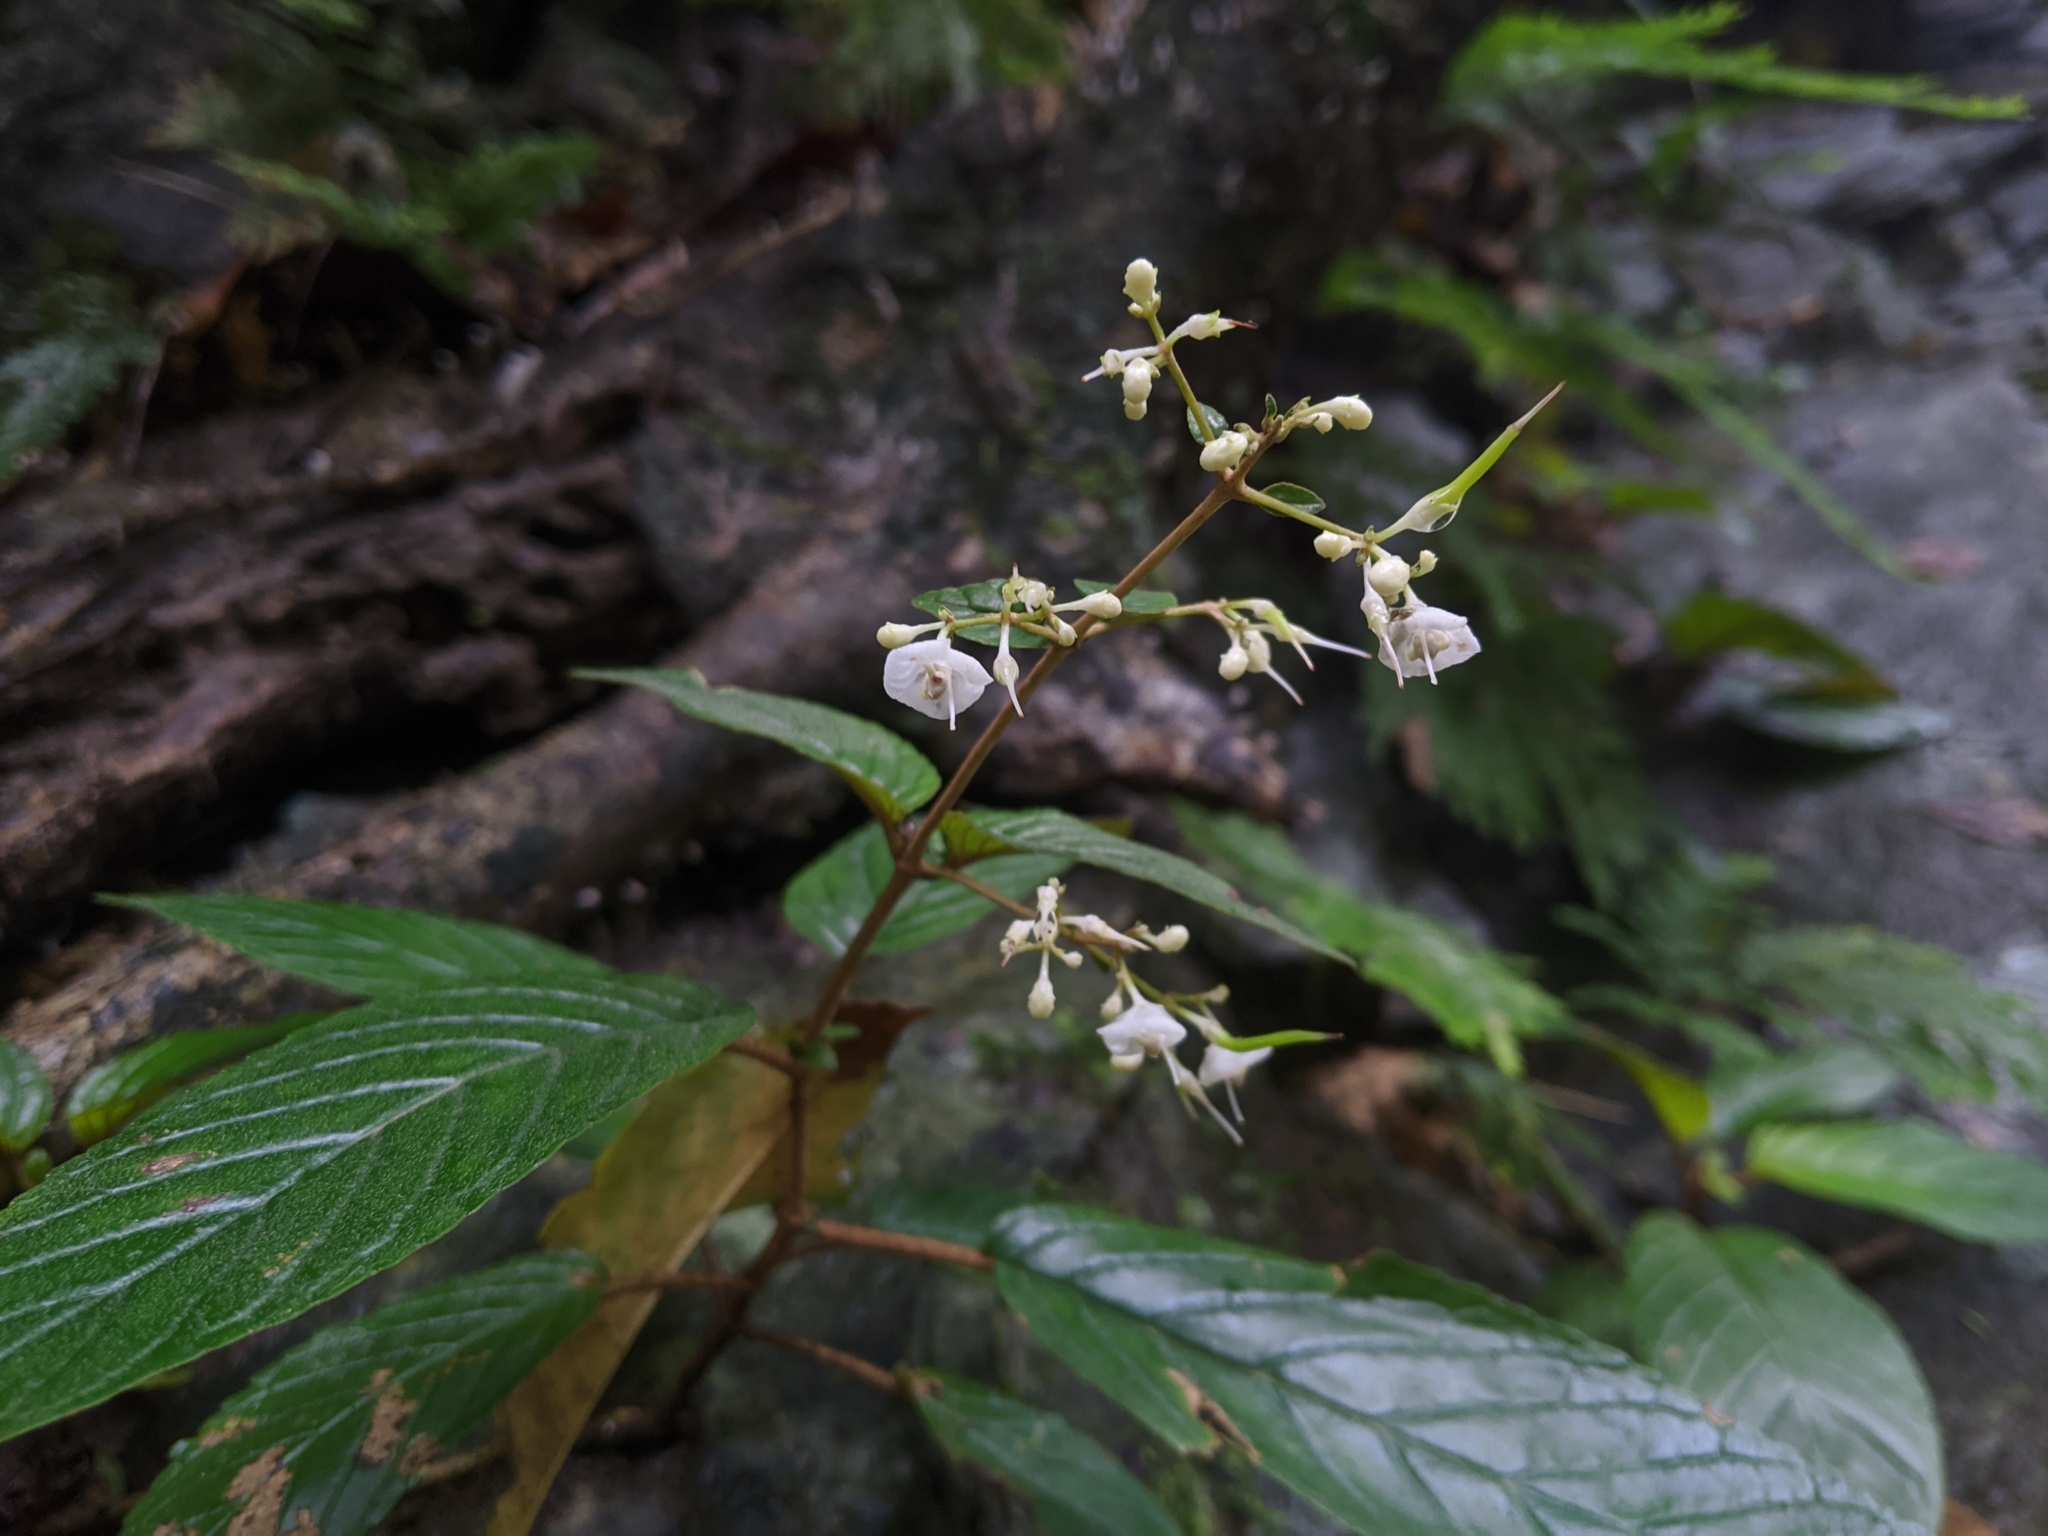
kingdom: Plantae
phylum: Tracheophyta
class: Magnoliopsida
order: Lamiales
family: Gesneriaceae
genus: Paraboea
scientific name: Paraboea swinhoei
